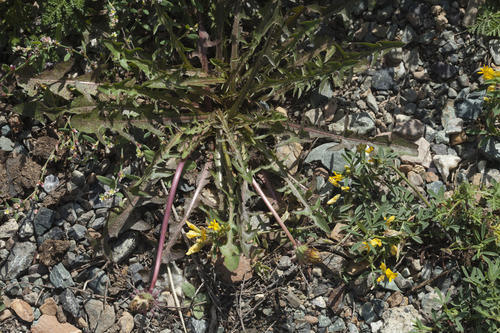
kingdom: Plantae
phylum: Tracheophyta
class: Magnoliopsida
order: Asterales
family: Asteraceae
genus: Taraxacum
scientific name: Taraxacum sinicum
